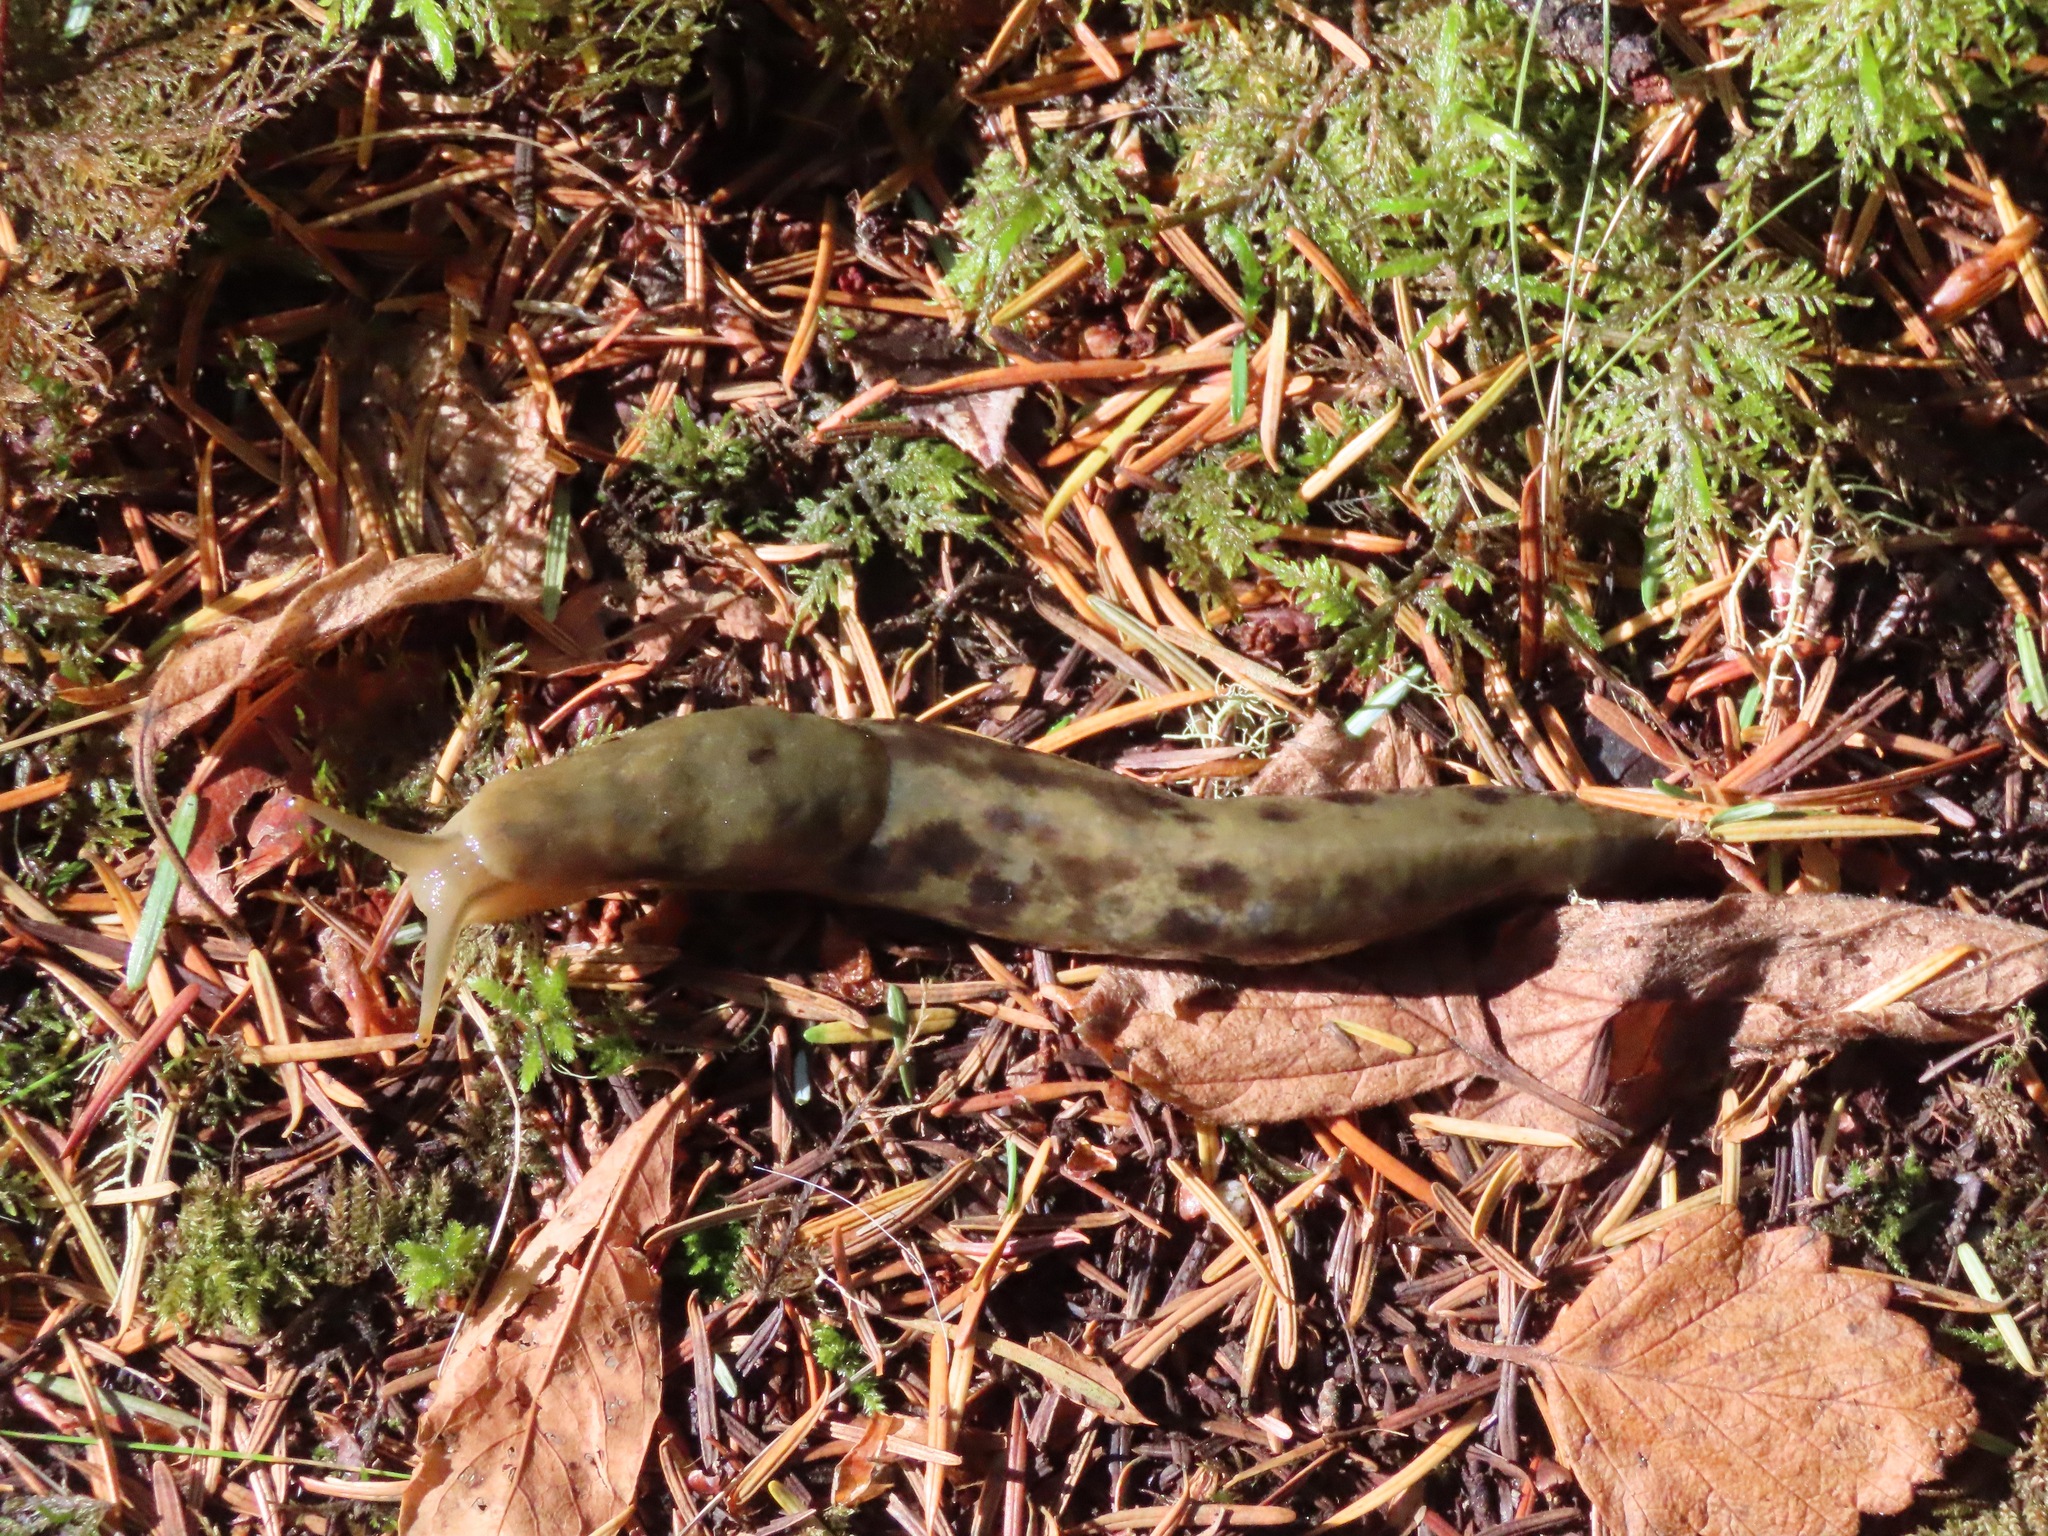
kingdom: Animalia
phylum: Mollusca
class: Gastropoda
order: Stylommatophora
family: Ariolimacidae
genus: Ariolimax
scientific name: Ariolimax columbianus
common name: Pacific banana slug
